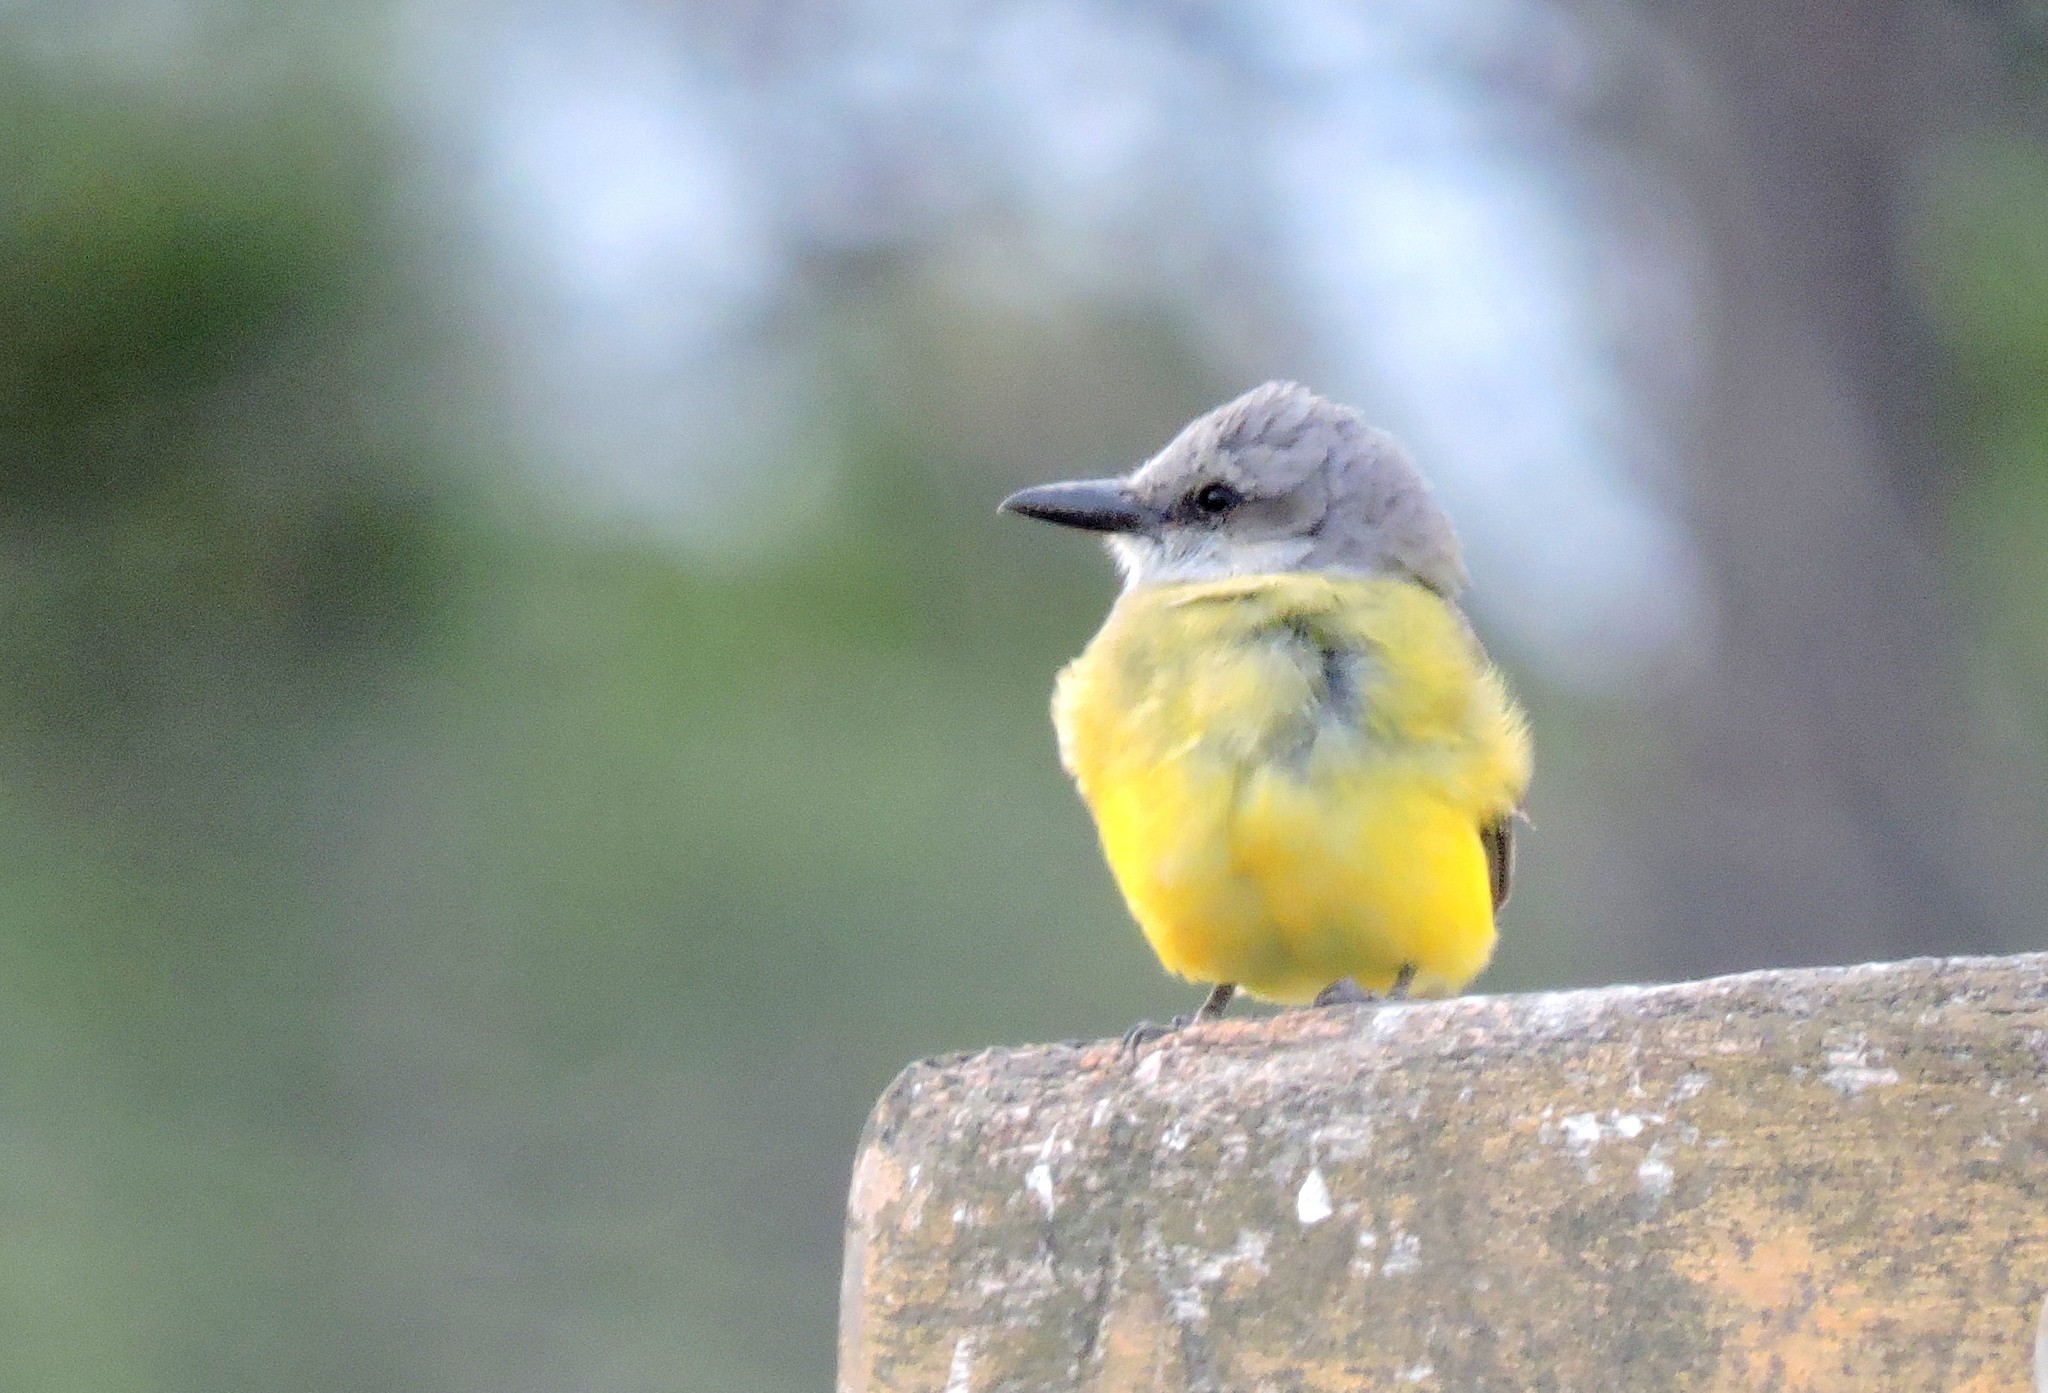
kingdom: Animalia
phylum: Chordata
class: Aves
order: Passeriformes
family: Tyrannidae
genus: Tyrannus
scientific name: Tyrannus melancholicus
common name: Tropical kingbird
